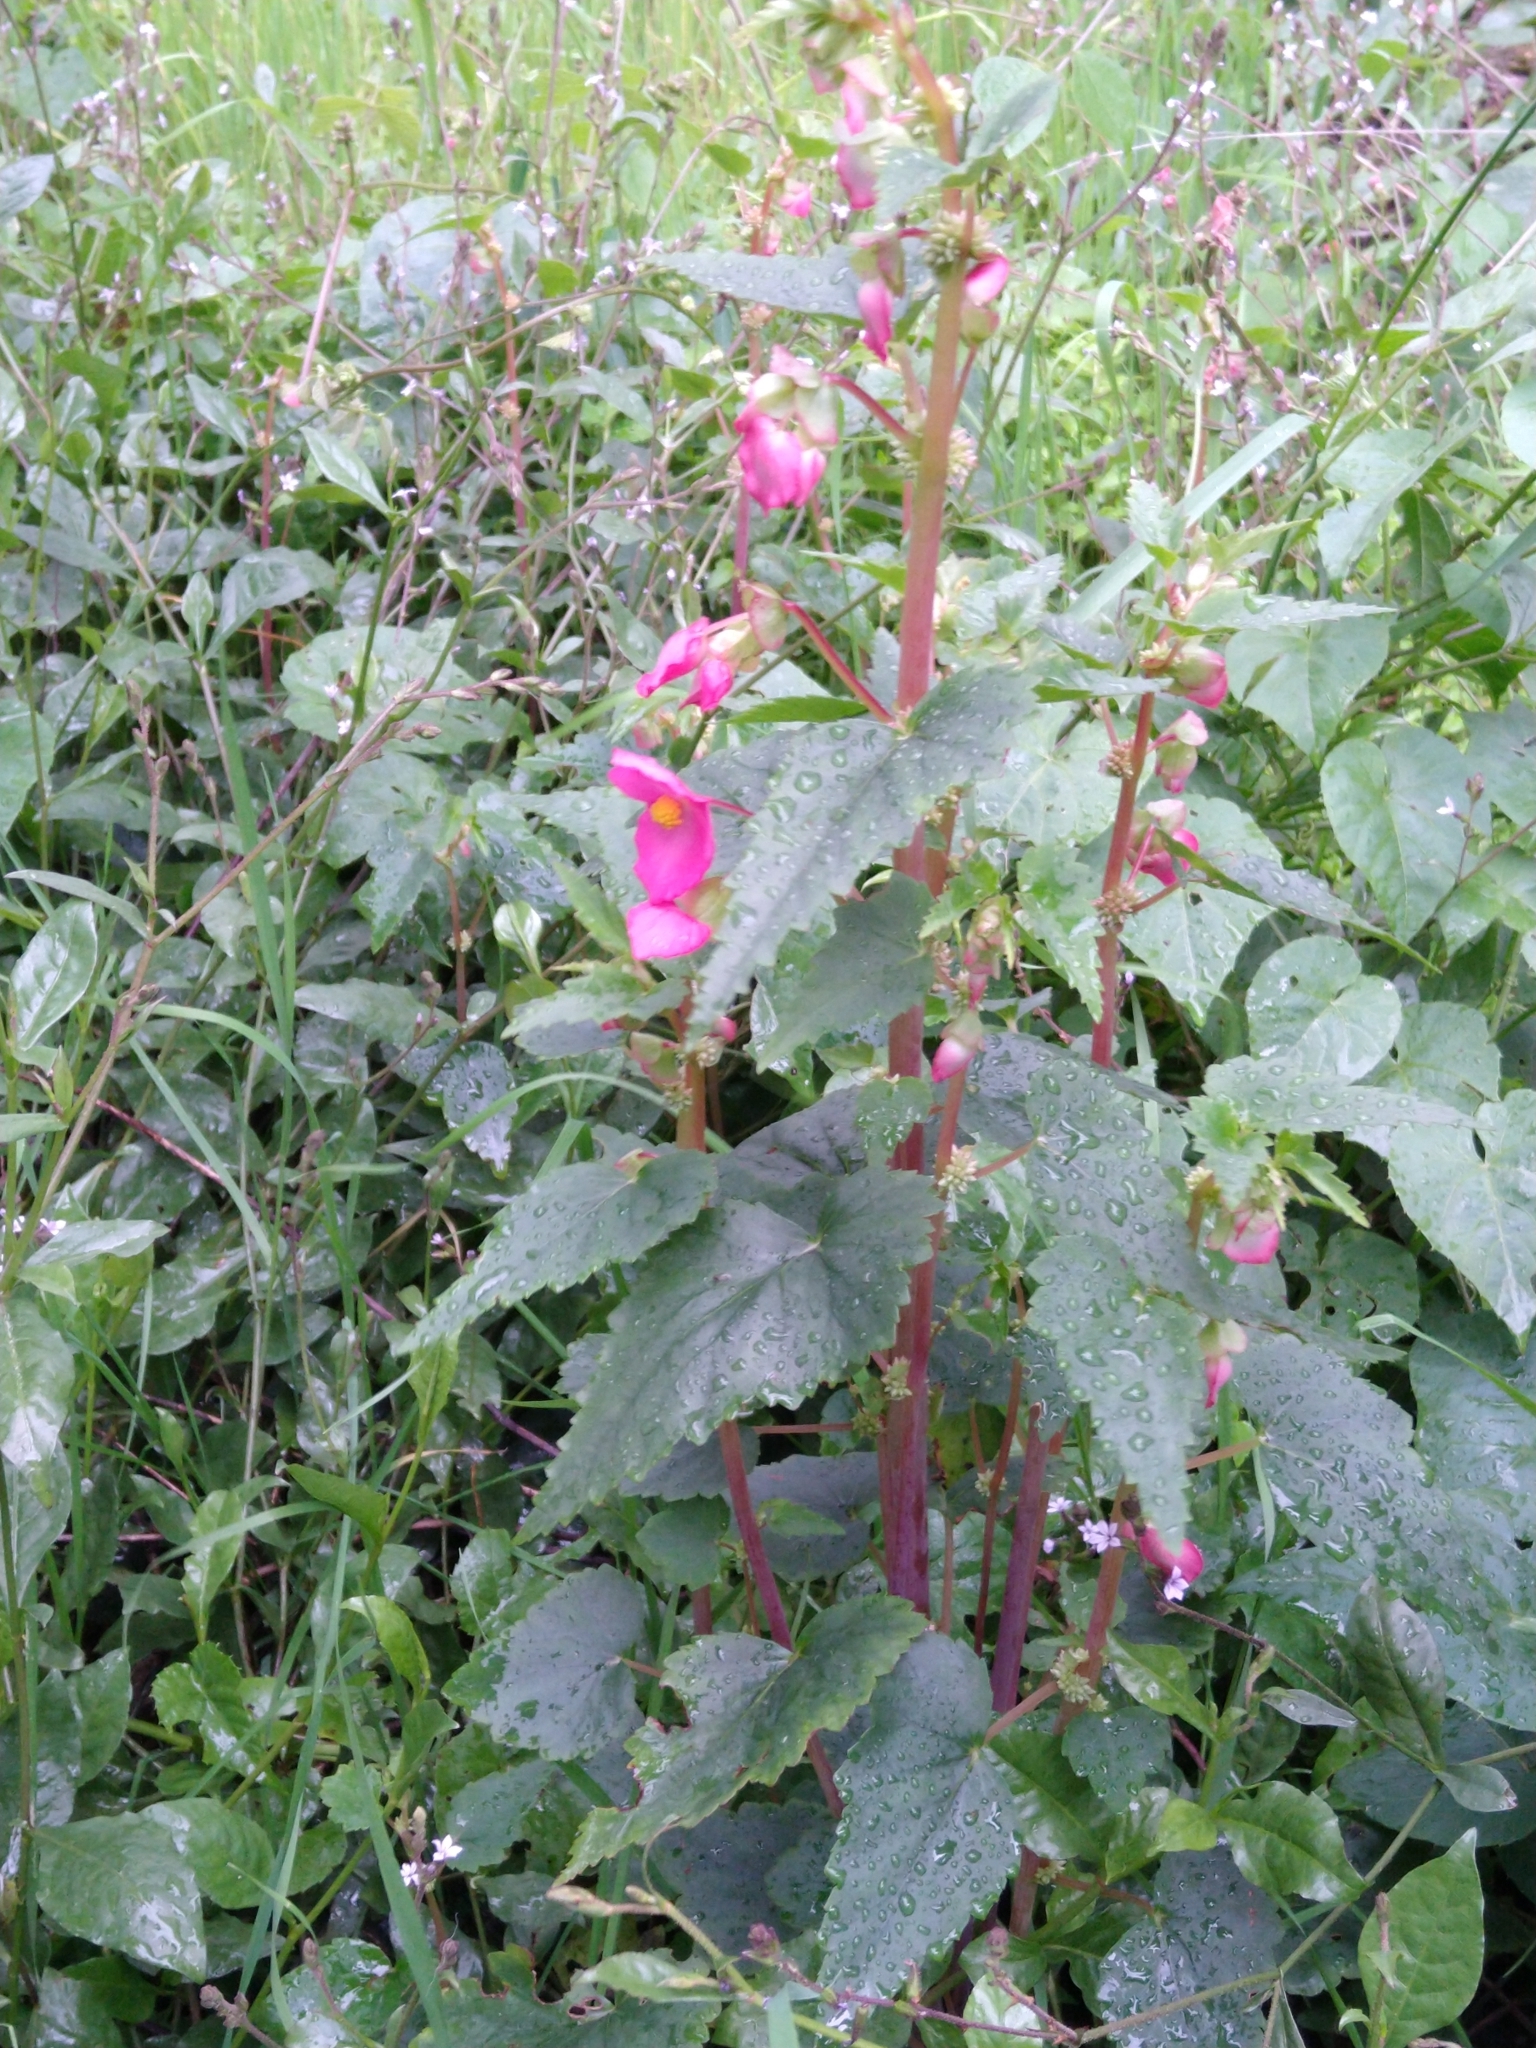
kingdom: Plantae
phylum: Tracheophyta
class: Magnoliopsida
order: Cucurbitales
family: Begoniaceae
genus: Begonia
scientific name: Begonia gracilis
